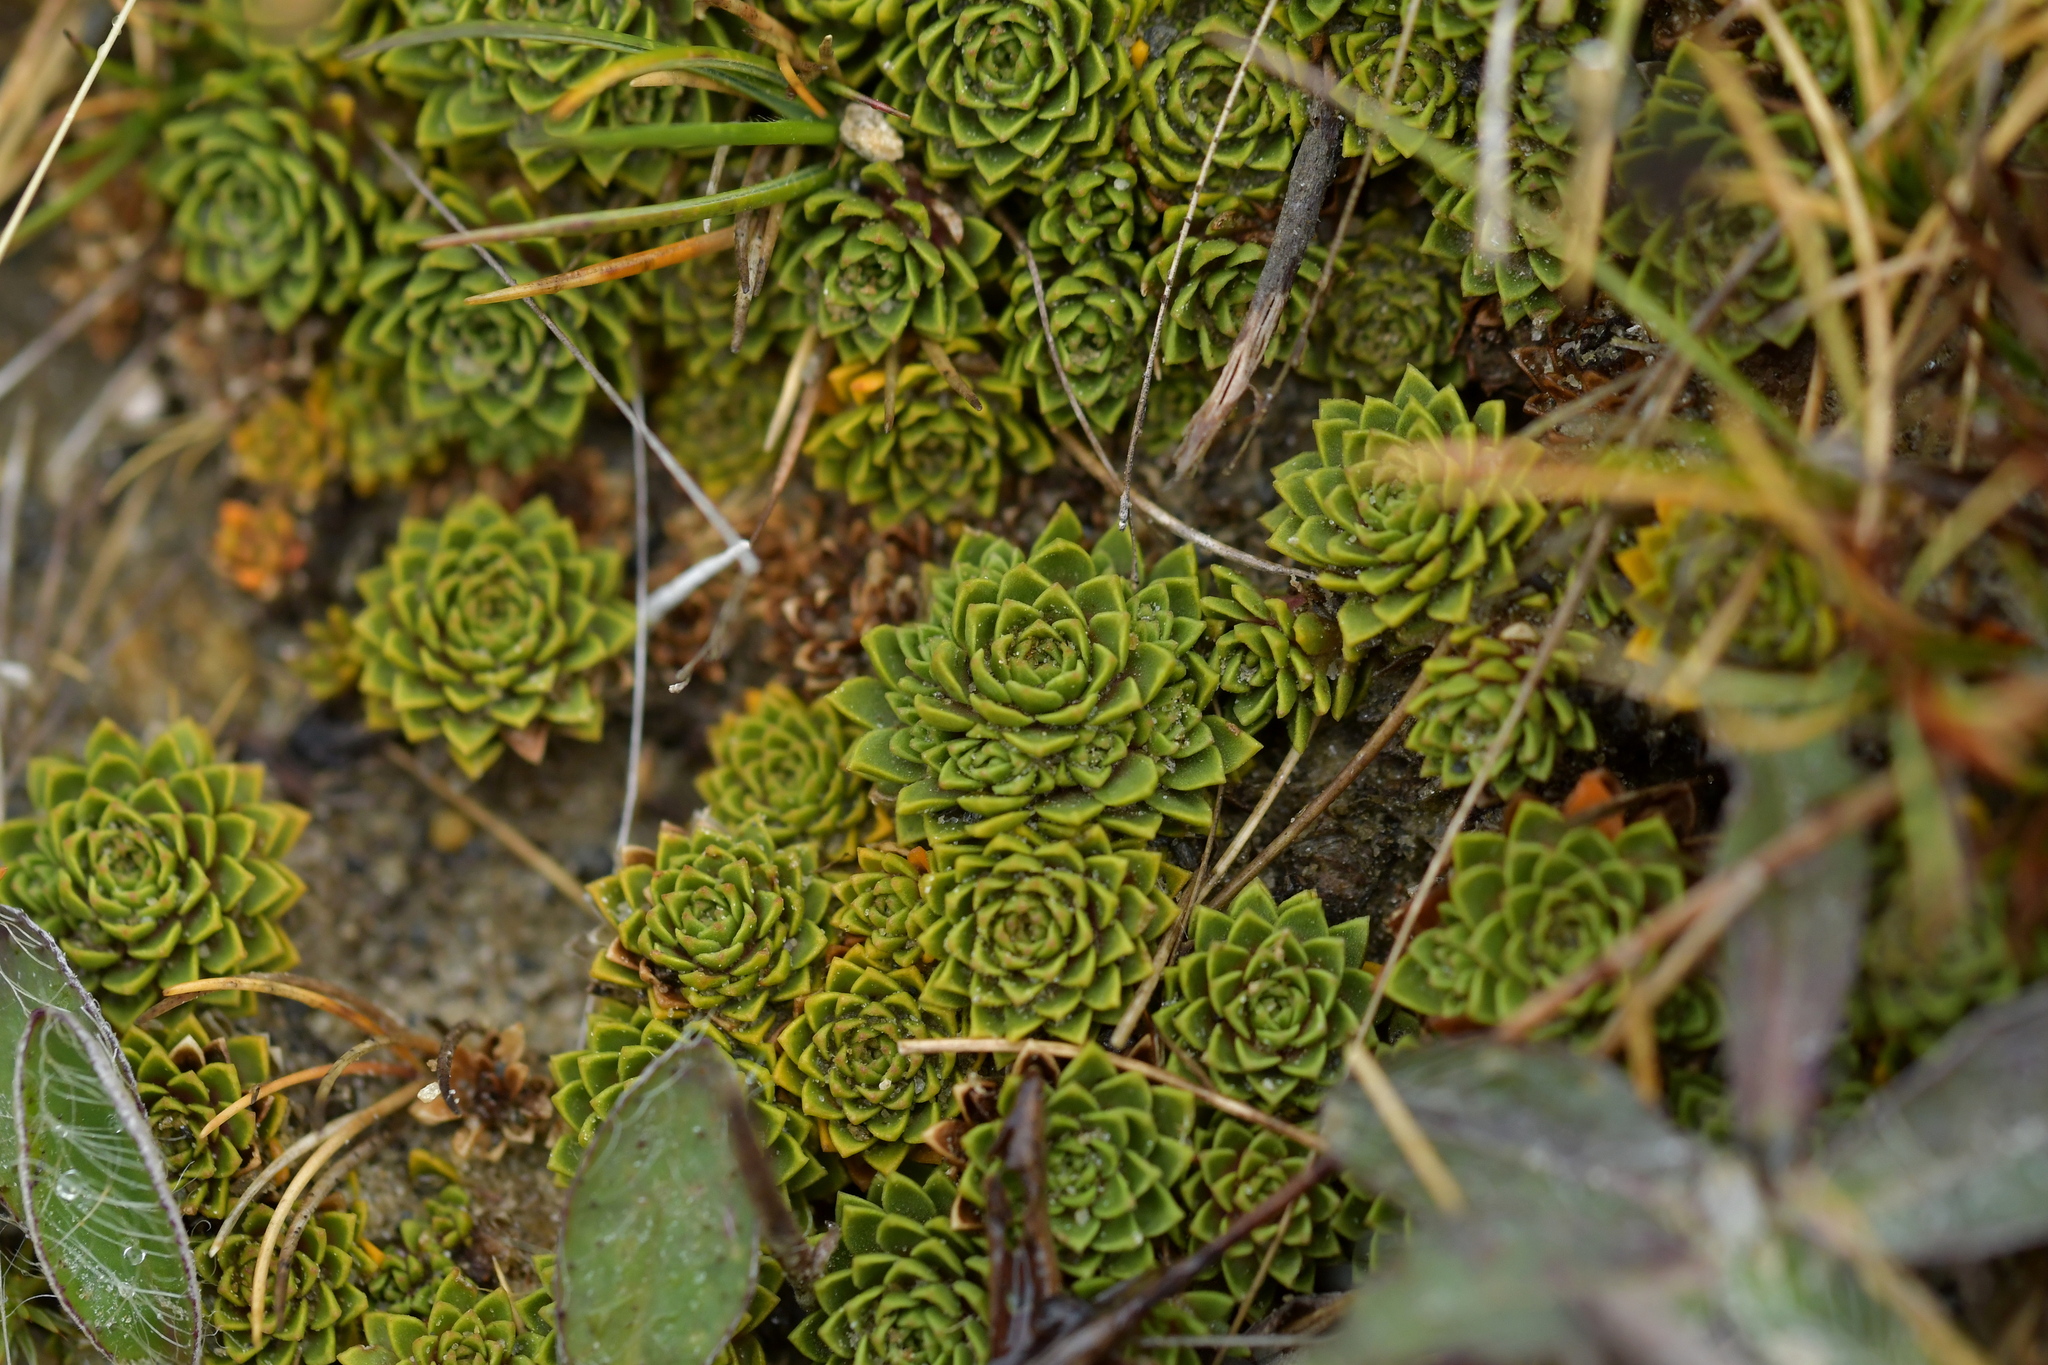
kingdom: Plantae
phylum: Tracheophyta
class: Magnoliopsida
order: Caryophyllales
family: Montiaceae
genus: Hectorella
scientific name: Hectorella caespitosa
